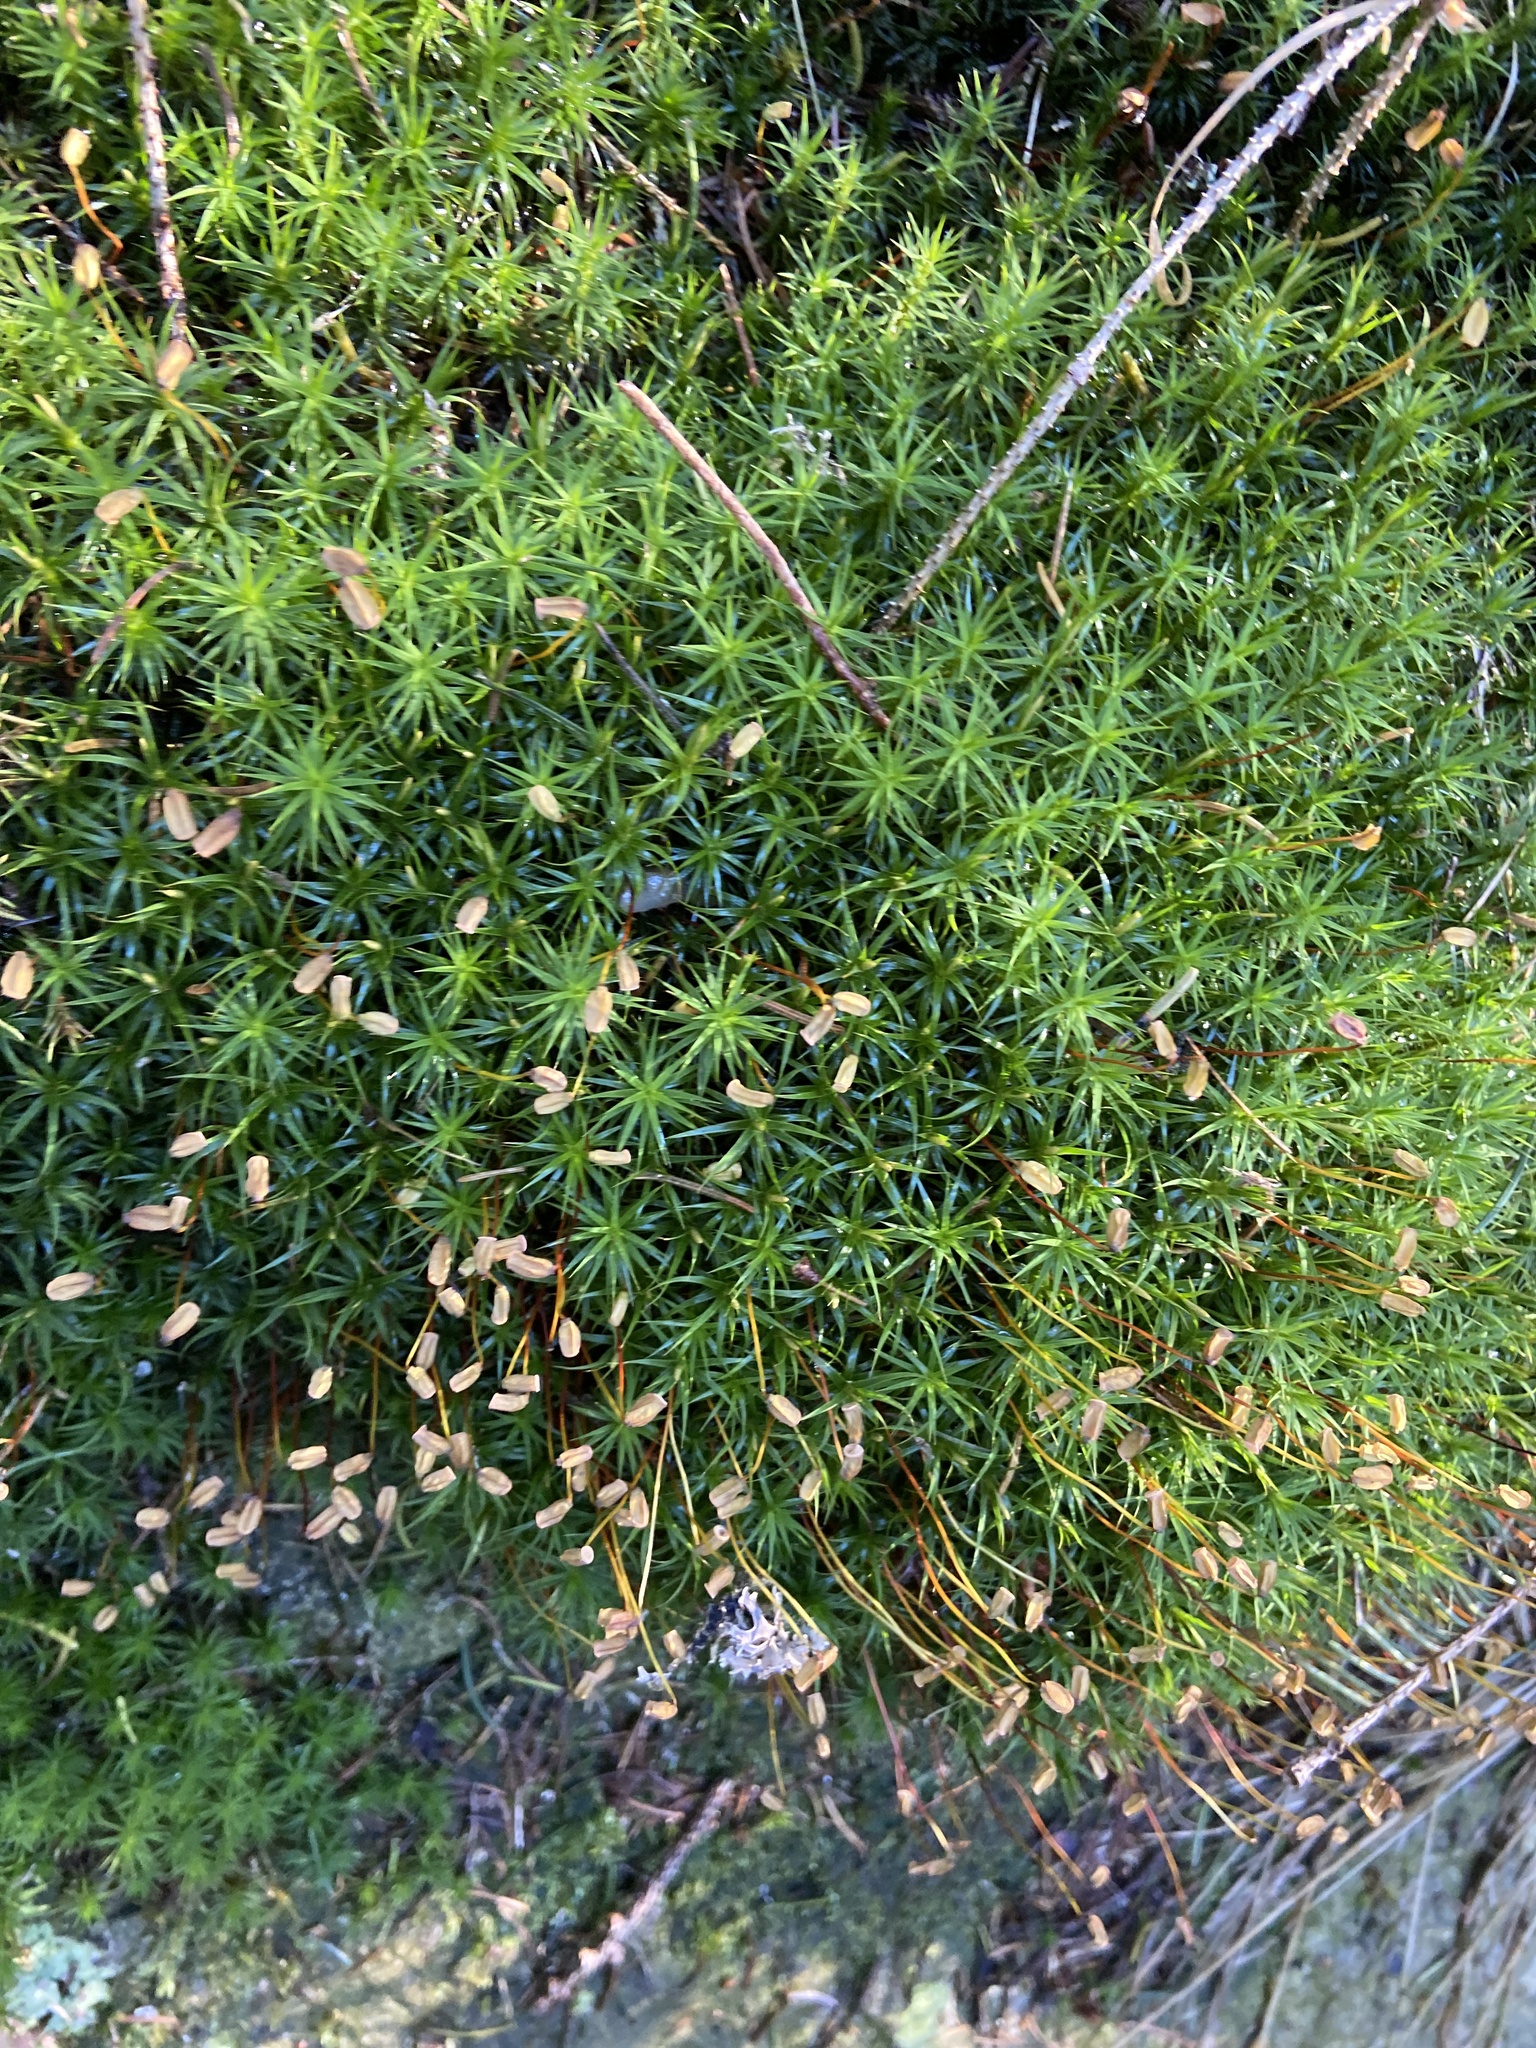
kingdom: Plantae
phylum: Bryophyta
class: Polytrichopsida
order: Polytrichales
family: Polytrichaceae
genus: Polytrichum
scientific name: Polytrichum formosum
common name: Bank haircap moss
